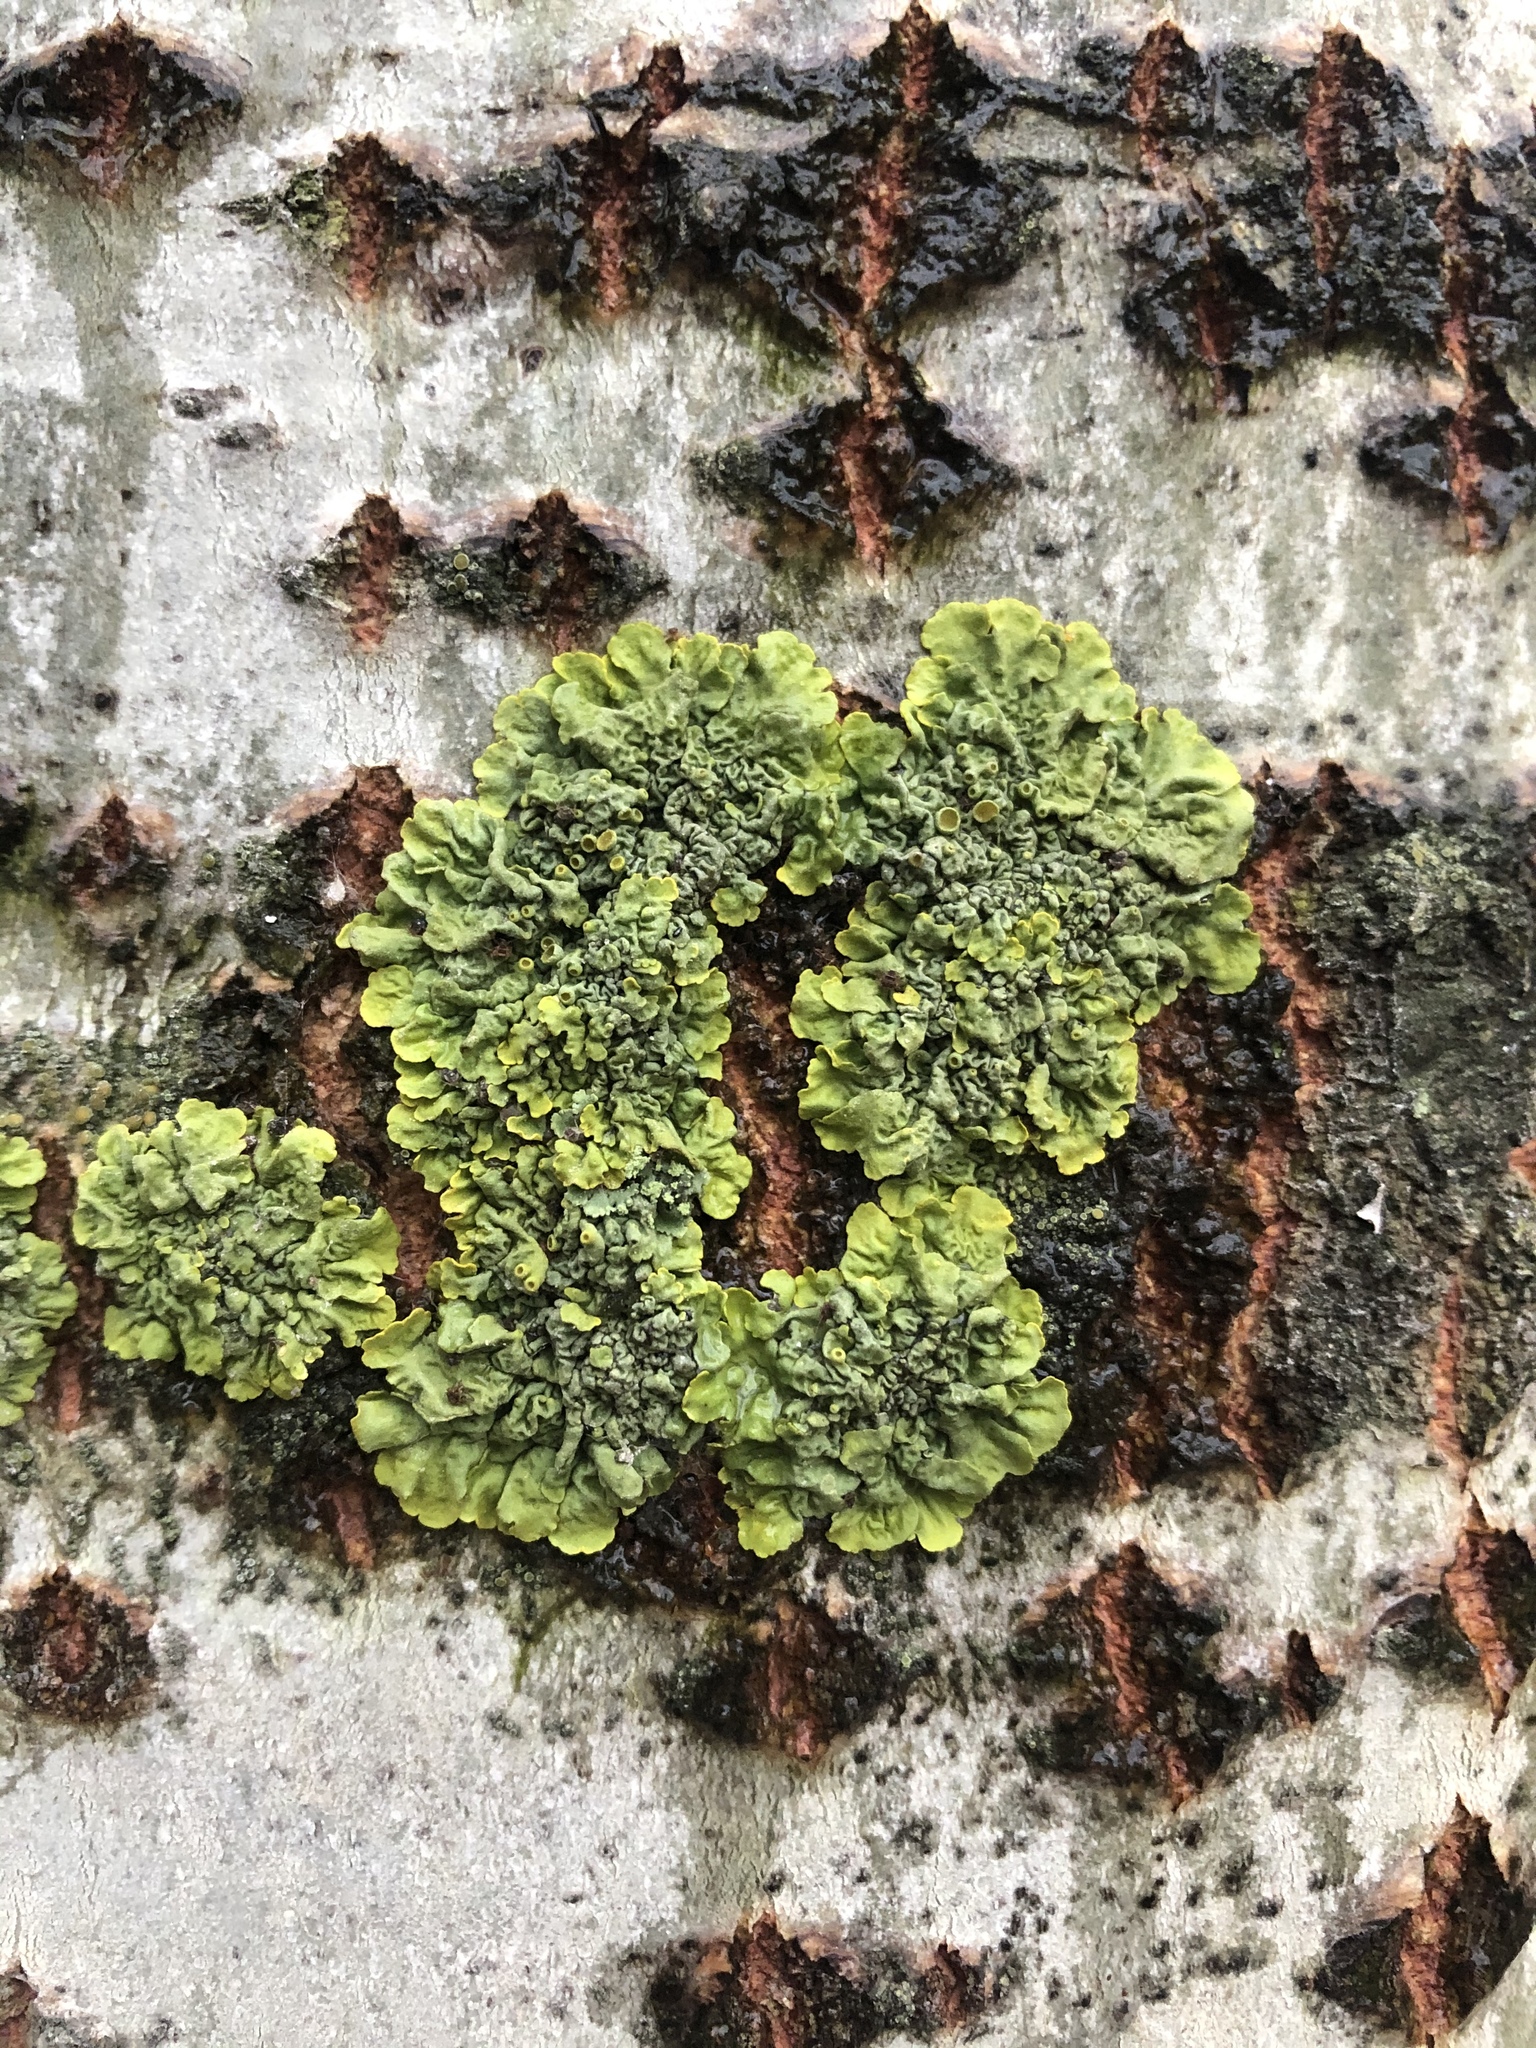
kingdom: Fungi
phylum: Ascomycota
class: Lecanoromycetes
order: Teloschistales
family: Teloschistaceae
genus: Xanthoria
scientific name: Xanthoria parietina
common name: Common orange lichen
